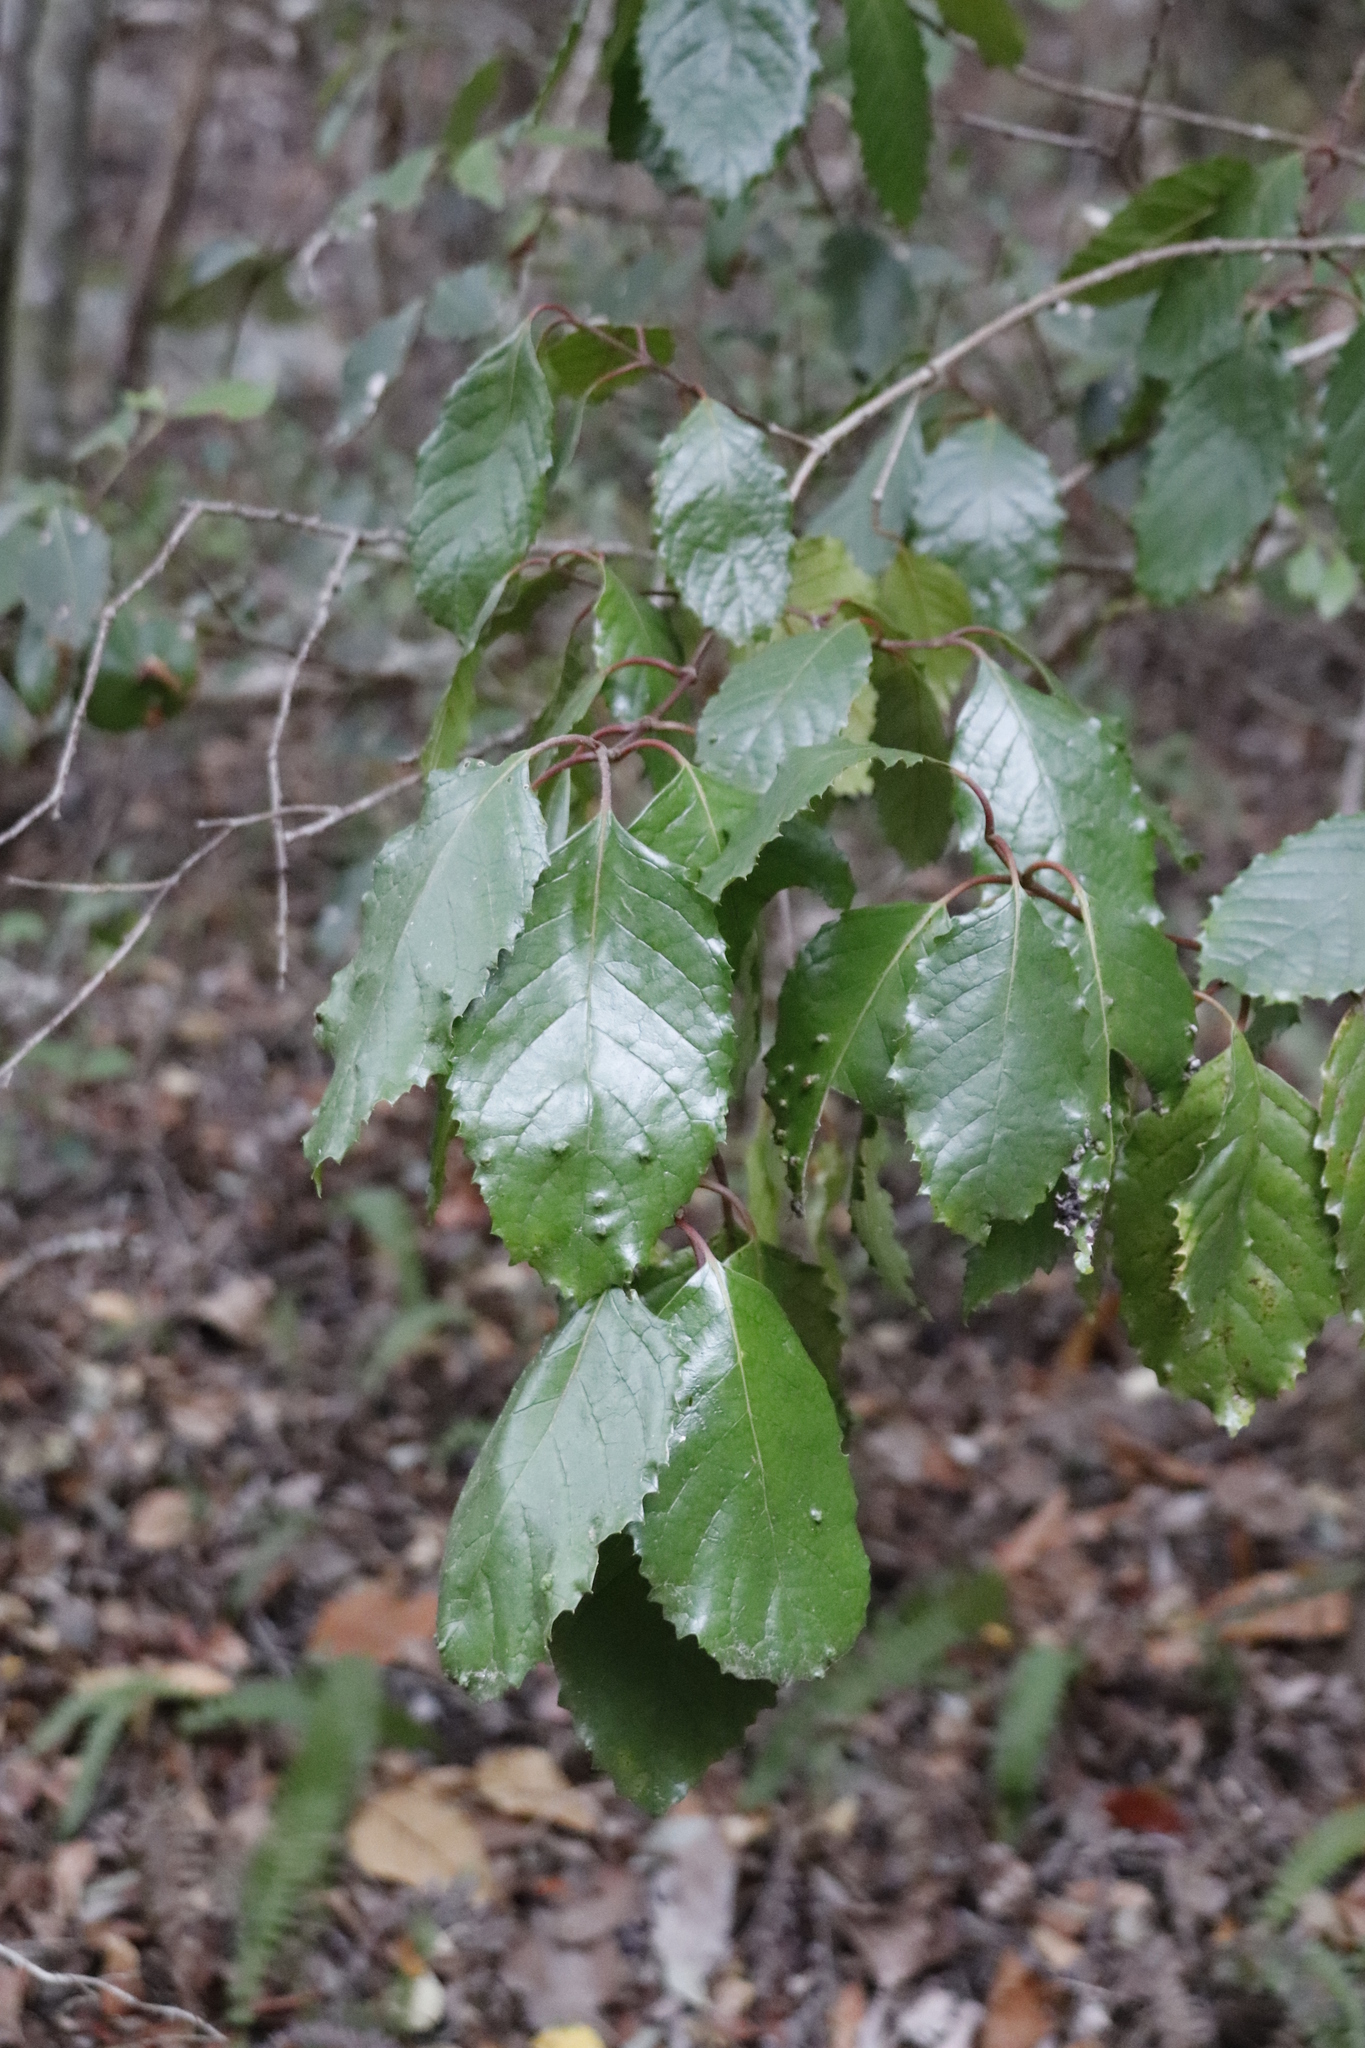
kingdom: Plantae
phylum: Tracheophyta
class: Magnoliopsida
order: Cornales
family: Curtisiaceae
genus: Curtisia
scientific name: Curtisia dentata
